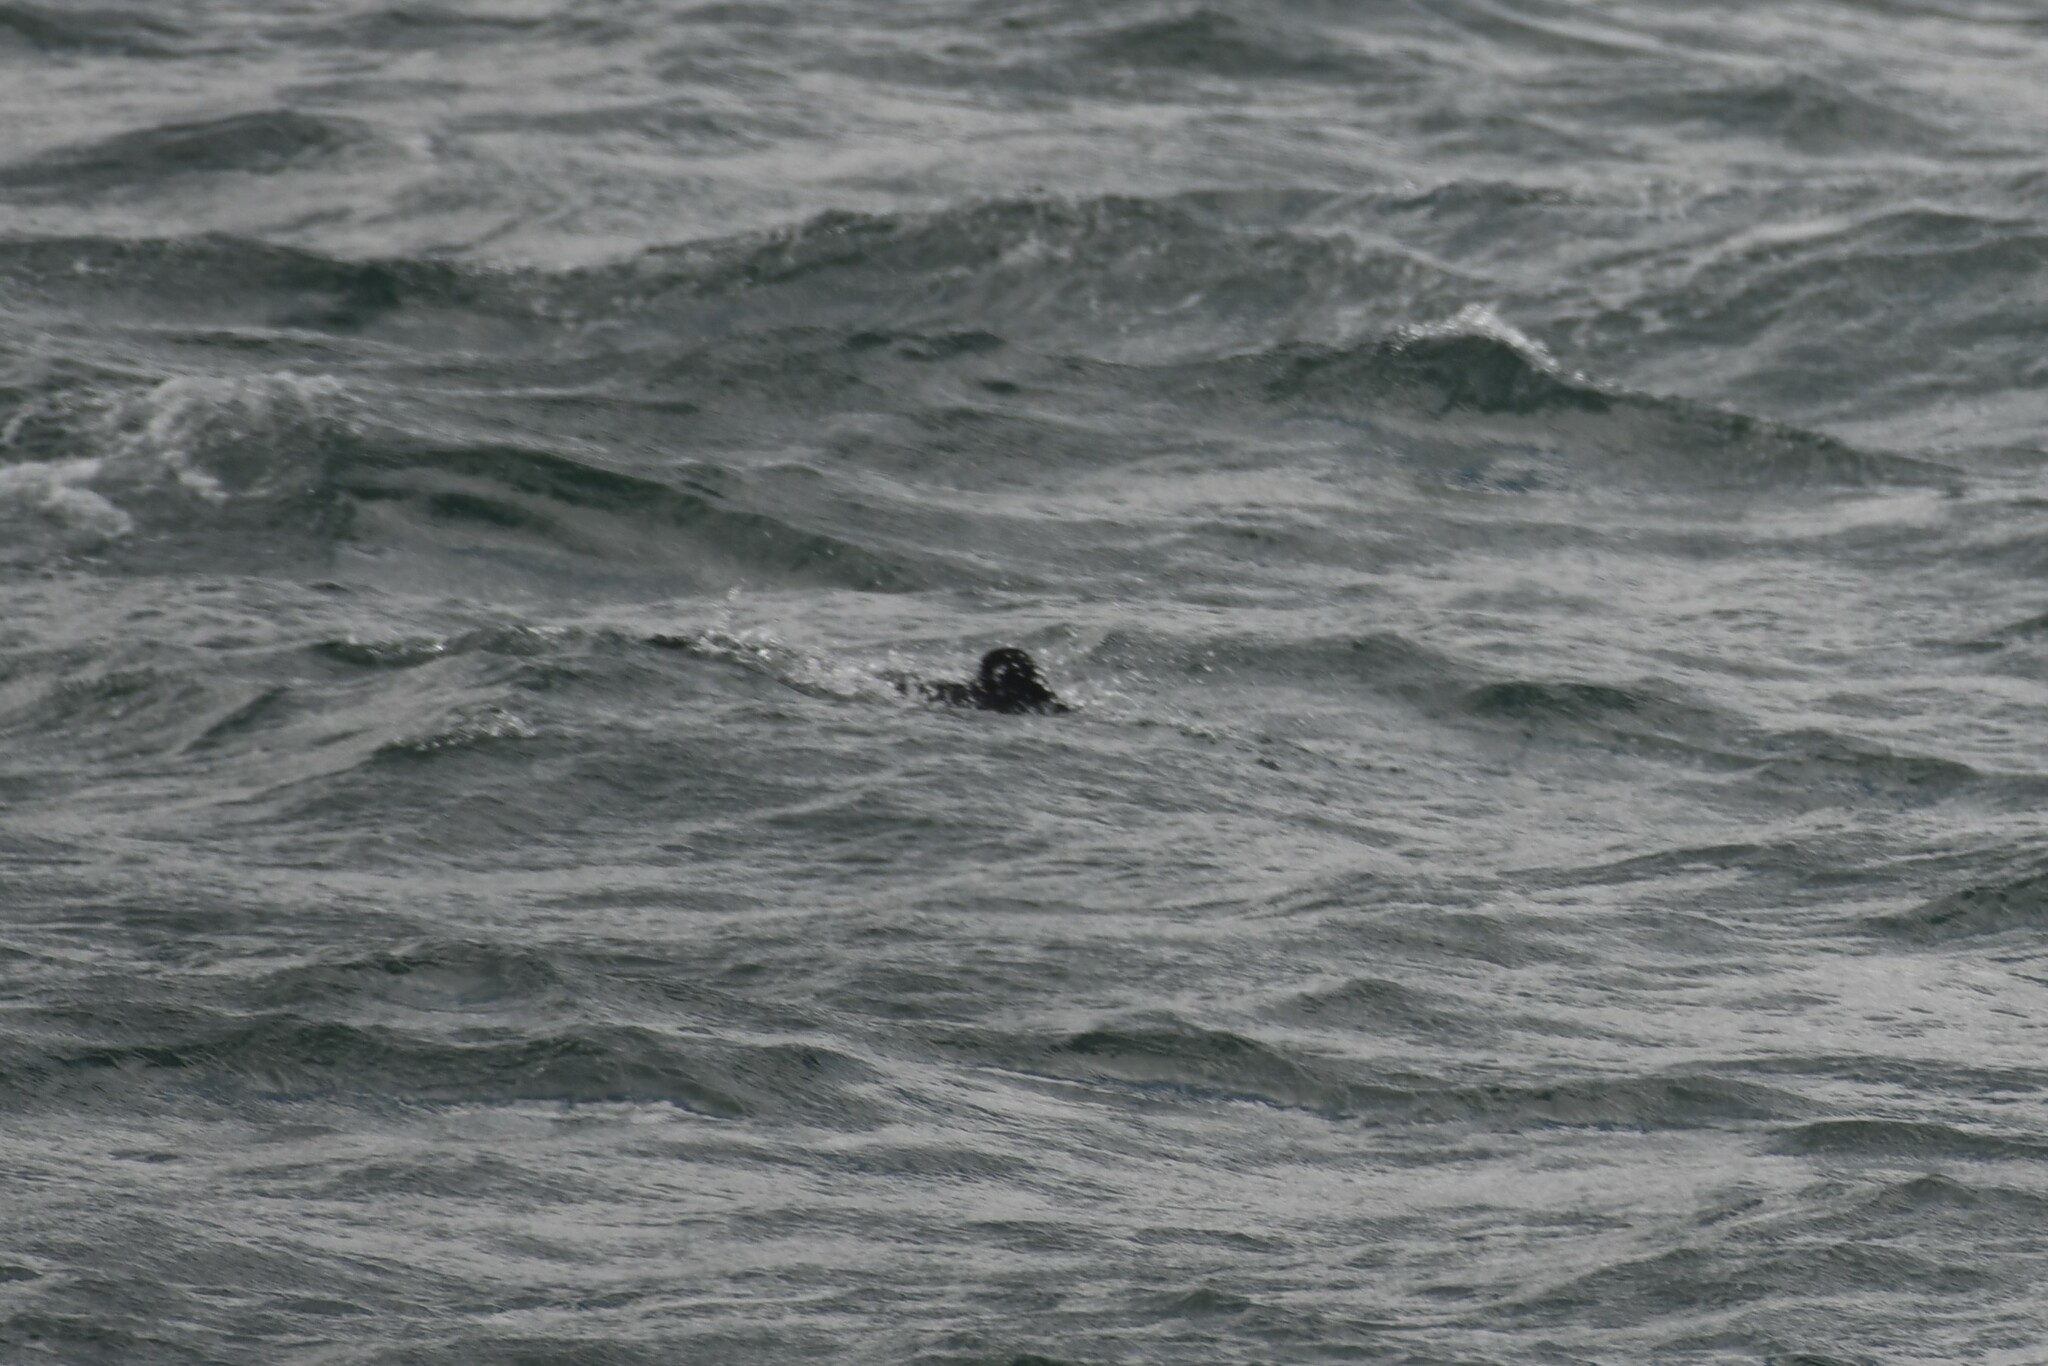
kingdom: Animalia
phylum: Chordata
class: Mammalia
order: Cetacea
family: Delphinidae
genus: Cephalorhynchus
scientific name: Cephalorhynchus commersonii
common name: Commerson's dolphin
